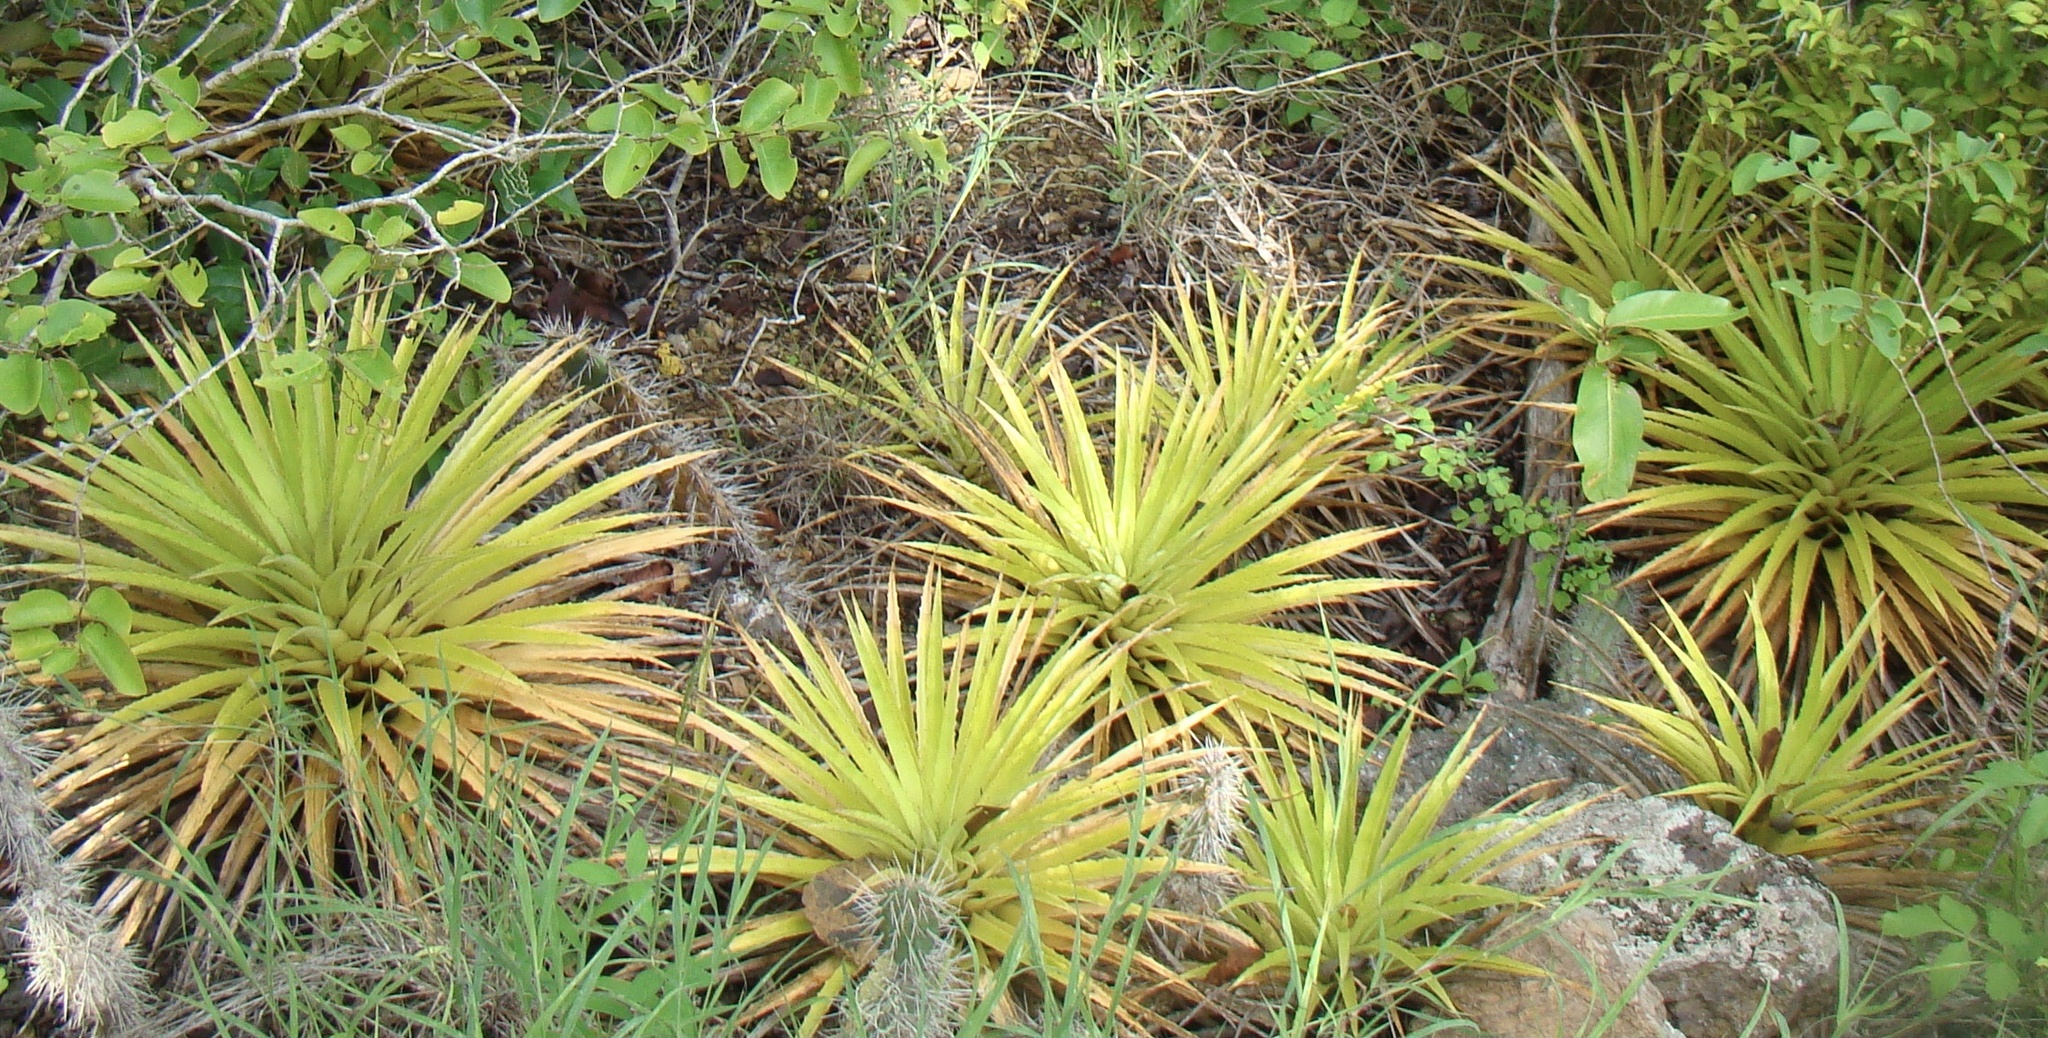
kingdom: Plantae
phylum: Tracheophyta
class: Liliopsida
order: Poales
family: Bromeliaceae
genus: Bromelia
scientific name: Bromelia humilis
